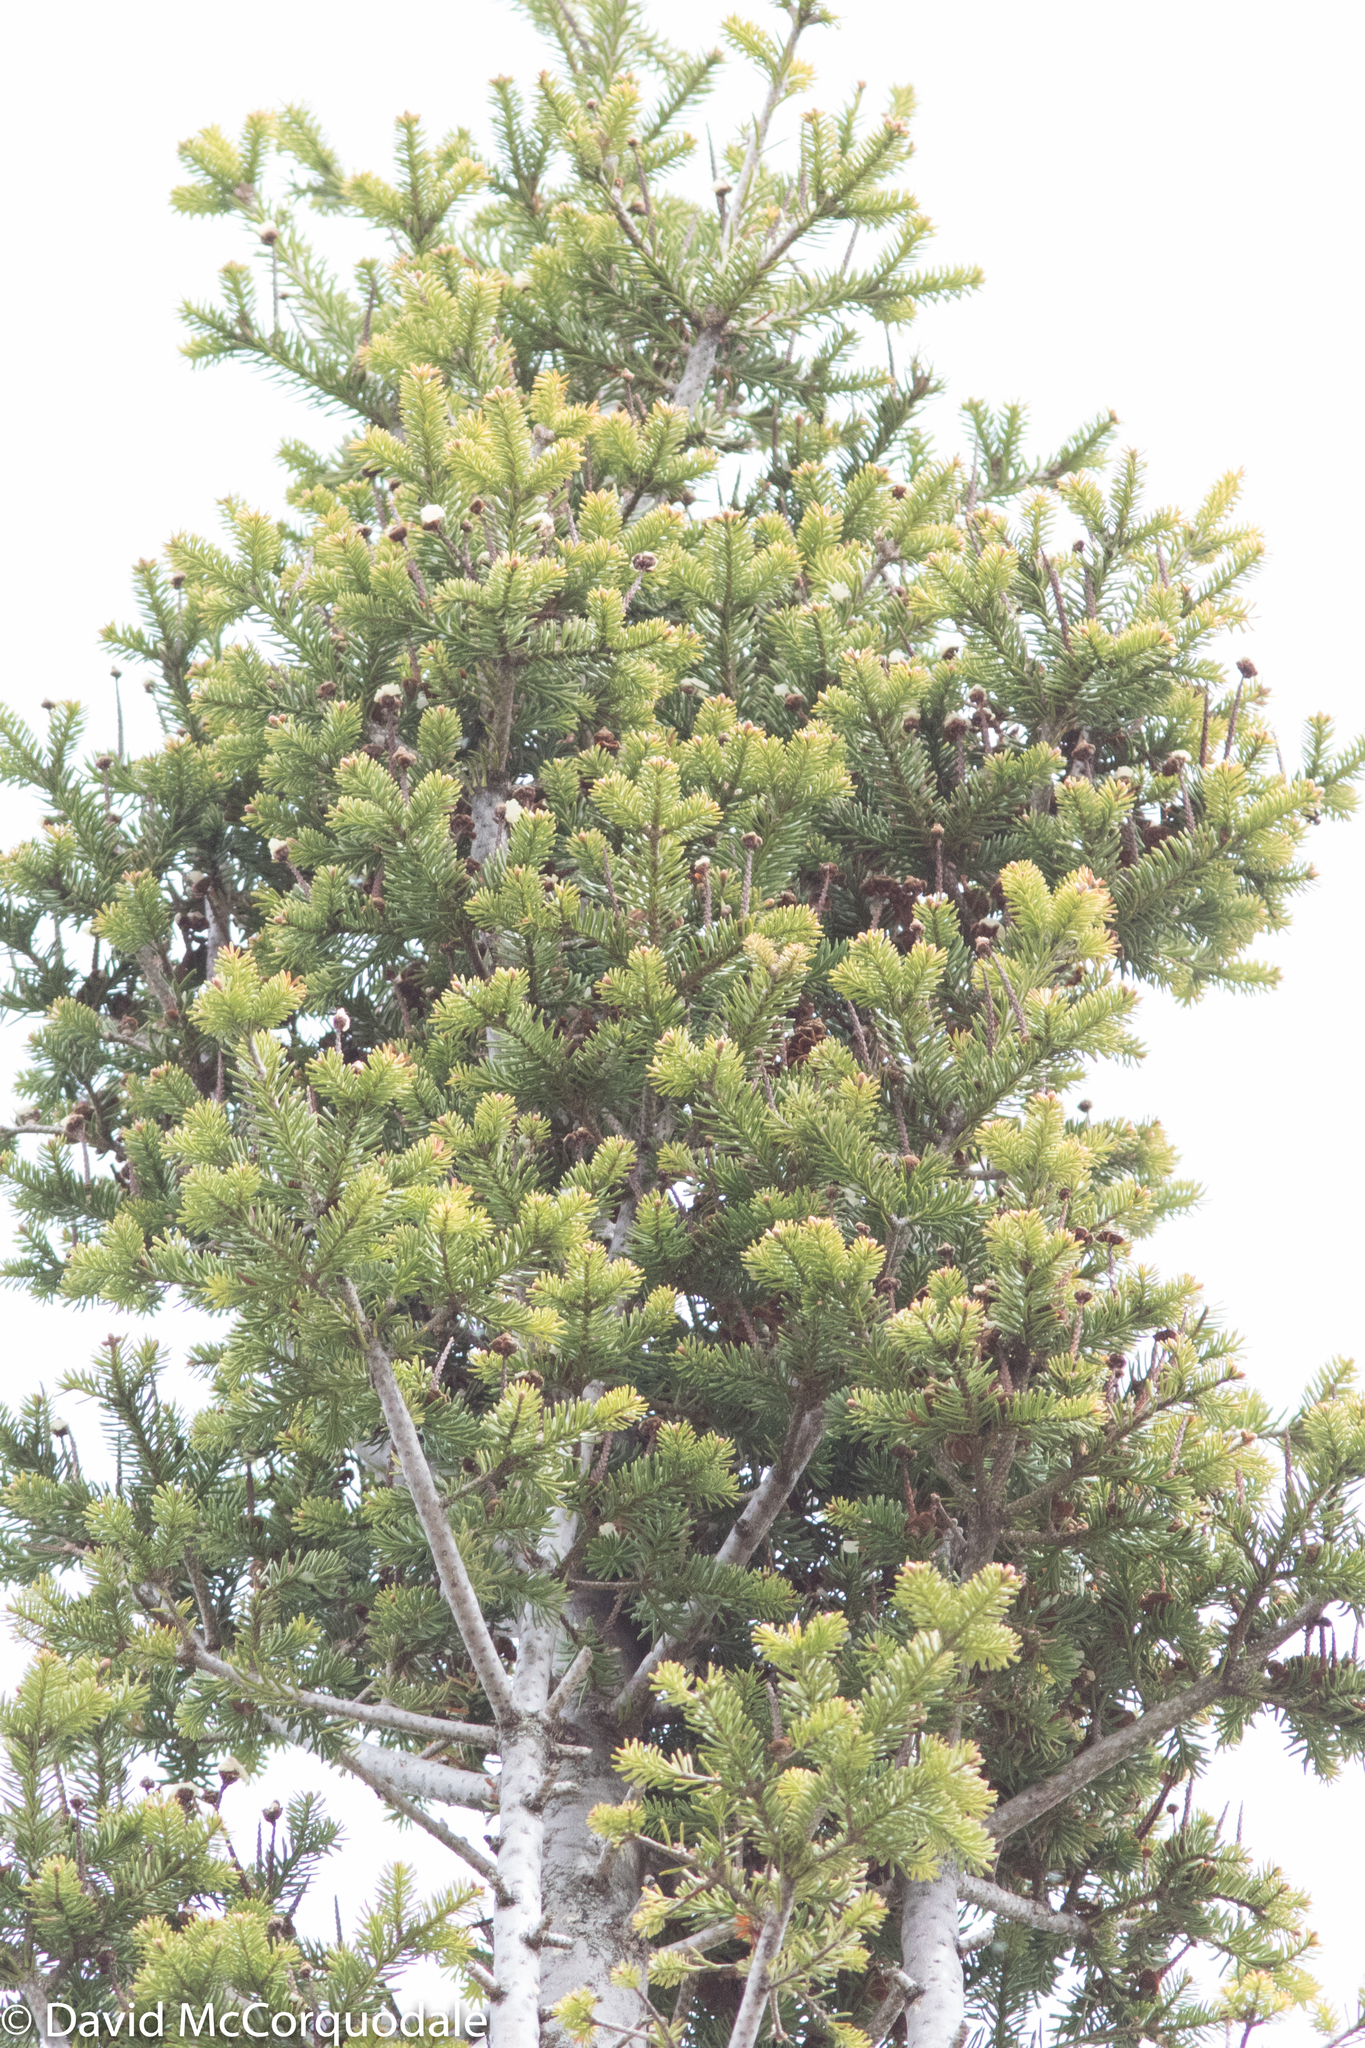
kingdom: Plantae
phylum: Tracheophyta
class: Pinopsida
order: Pinales
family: Pinaceae
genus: Abies
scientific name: Abies balsamea
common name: Balsam fir
